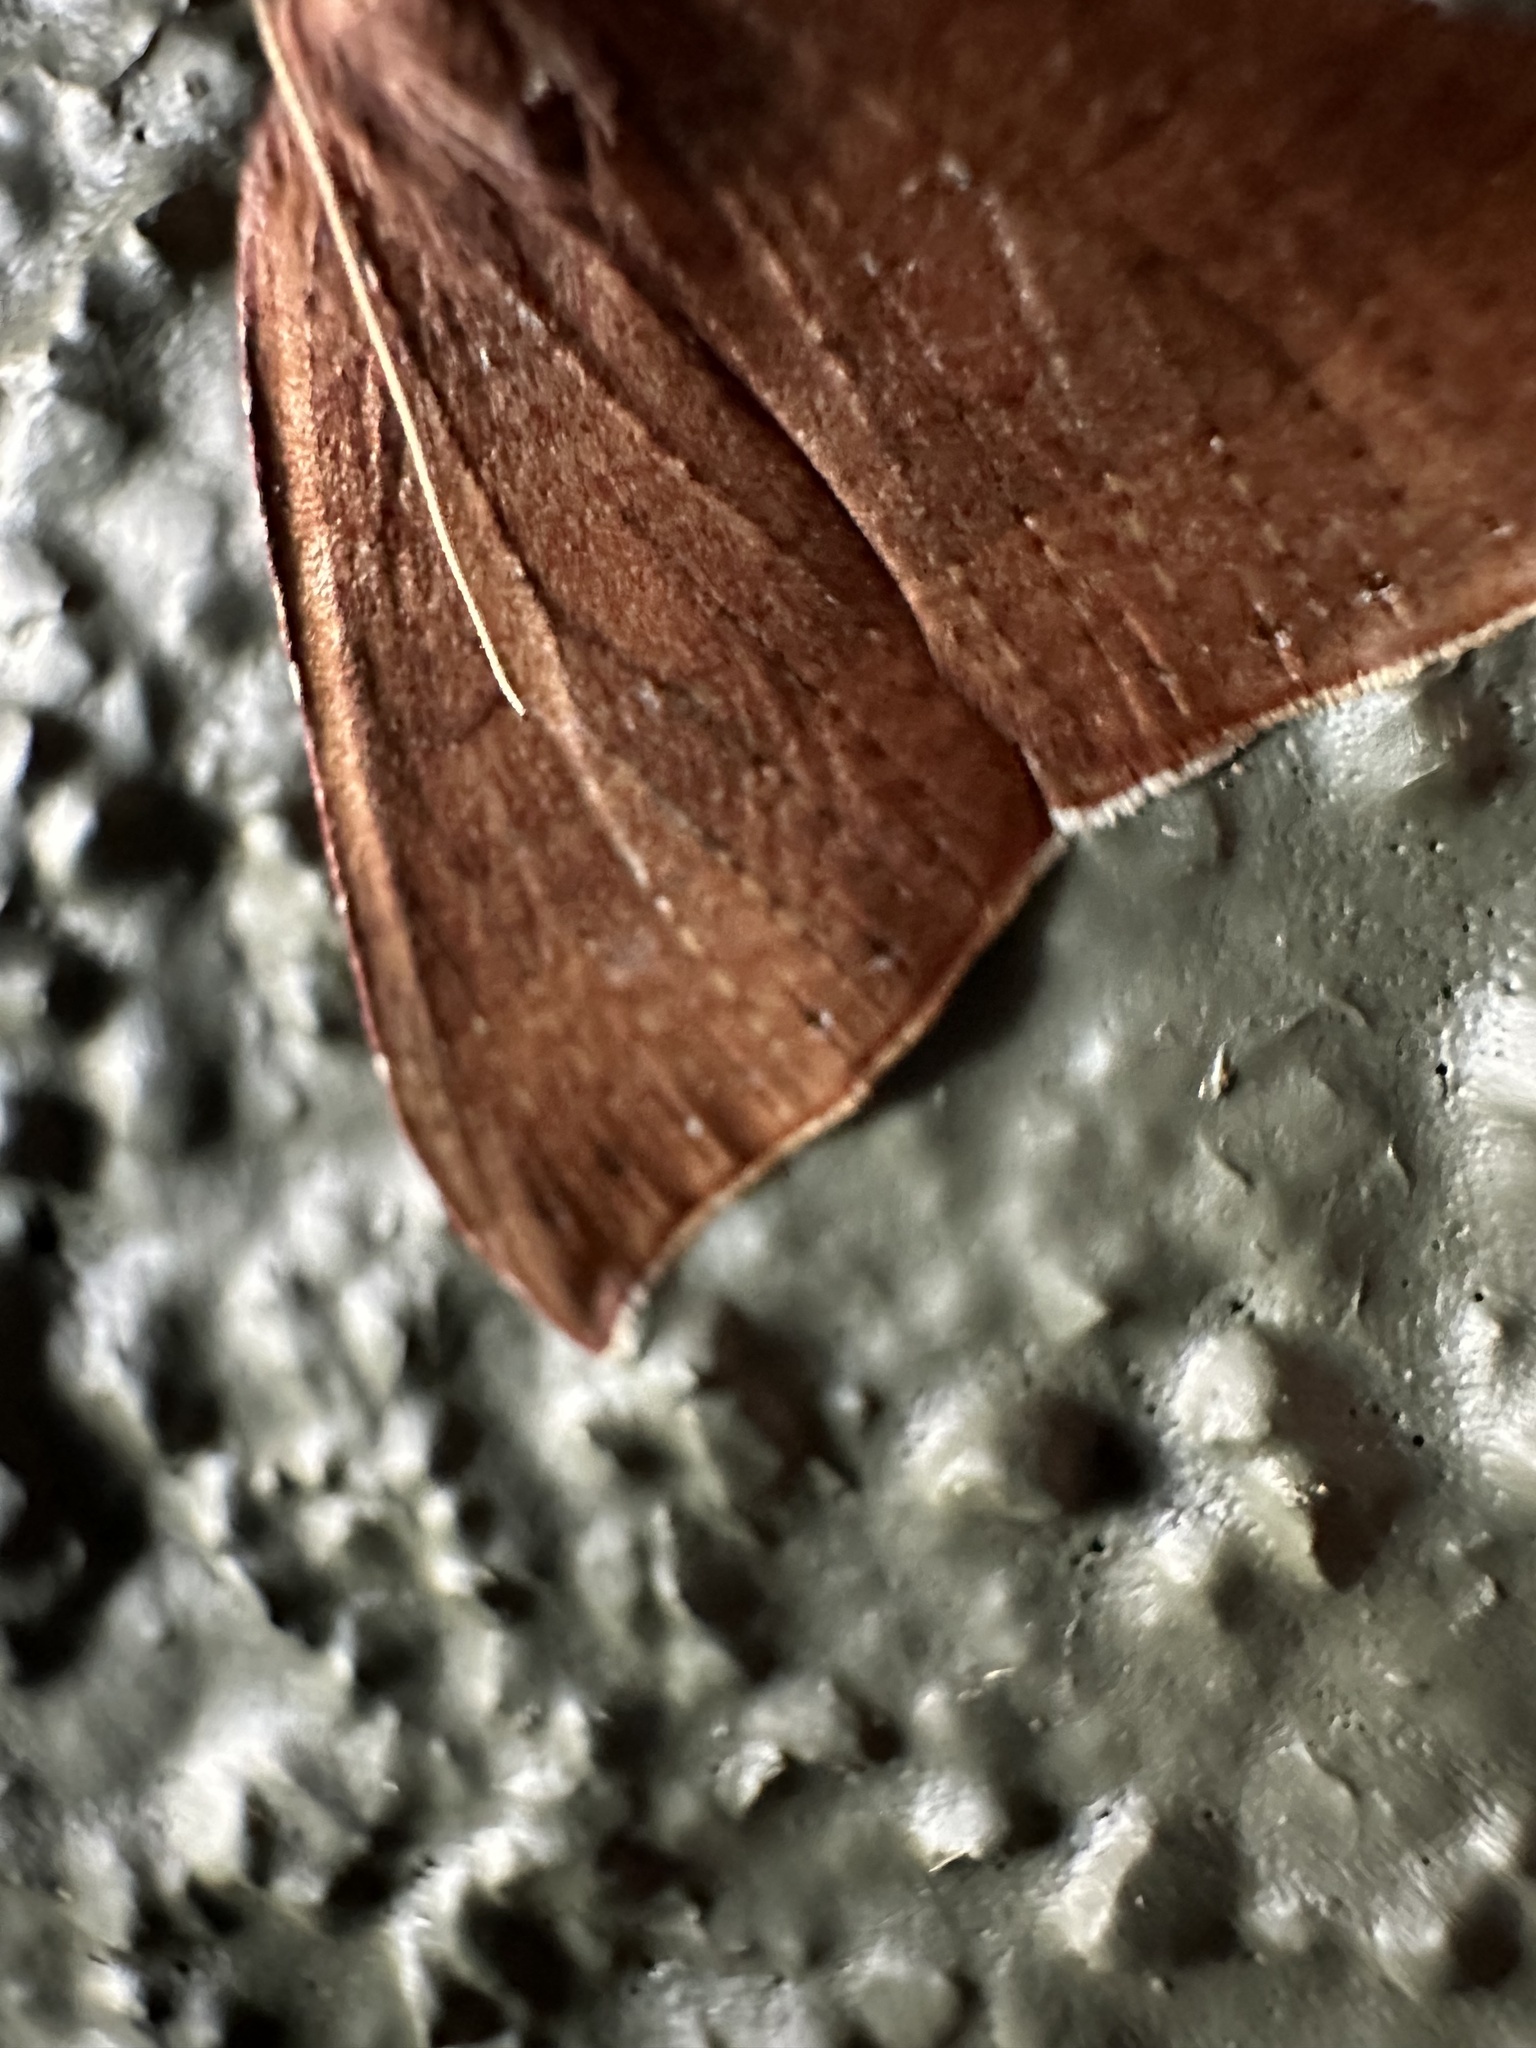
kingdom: Animalia
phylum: Arthropoda
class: Insecta
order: Lepidoptera
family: Geometridae
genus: Ennada
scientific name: Ennada flavaria
